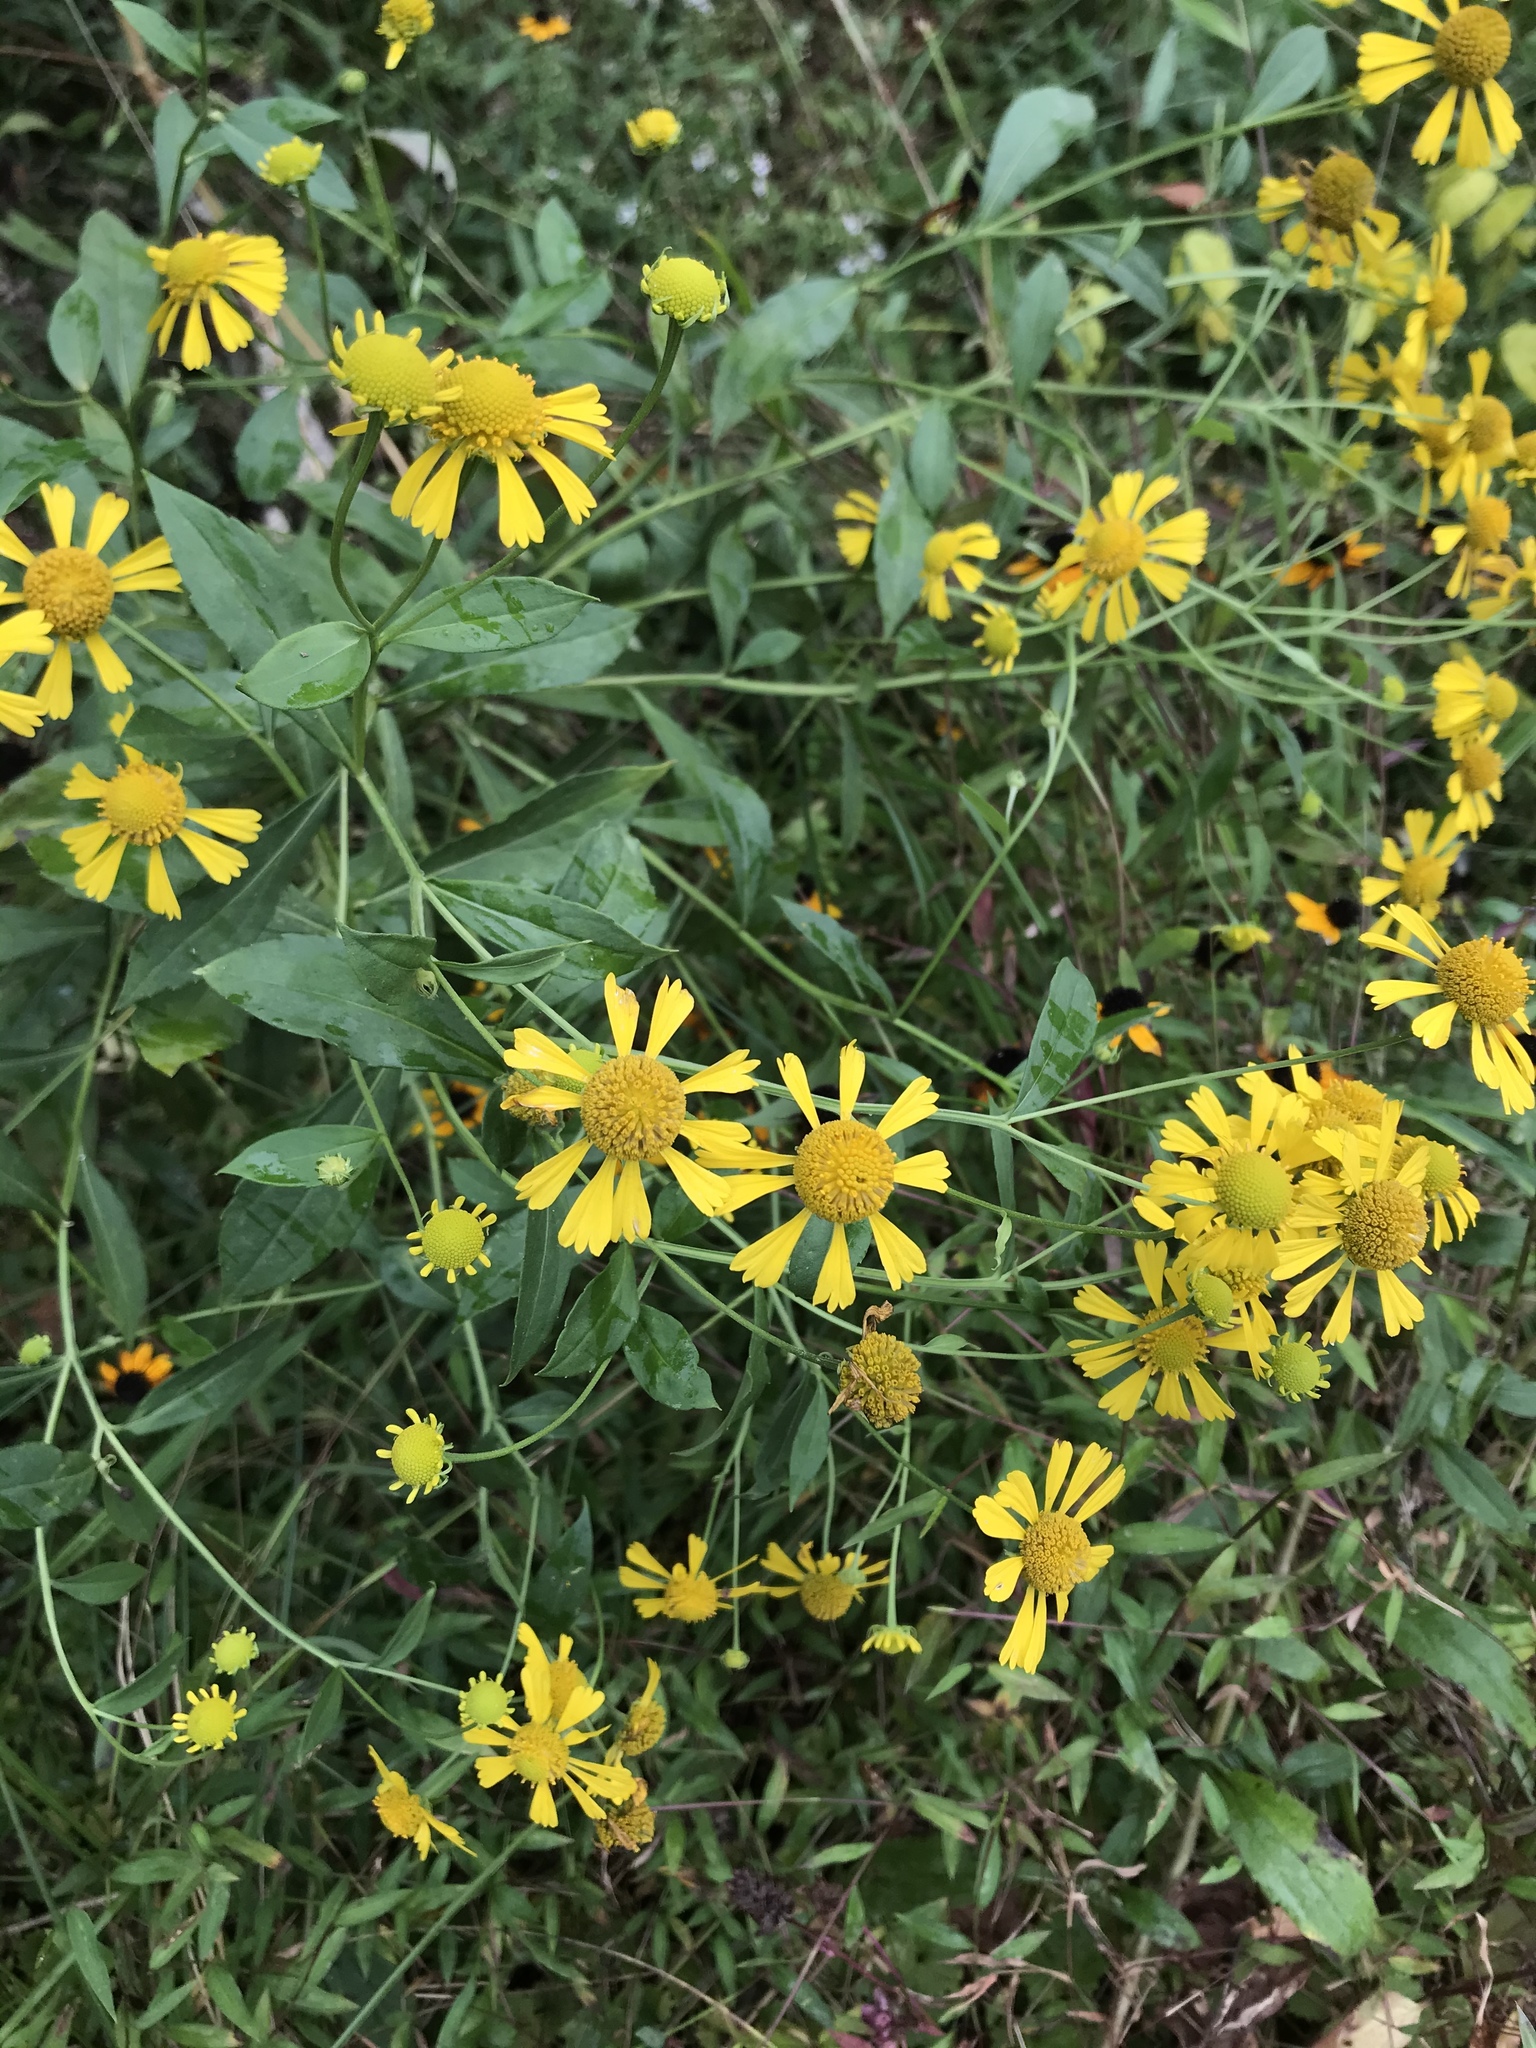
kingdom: Plantae
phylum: Tracheophyta
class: Magnoliopsida
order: Asterales
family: Asteraceae
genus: Helenium
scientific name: Helenium autumnale
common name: Sneezeweed
